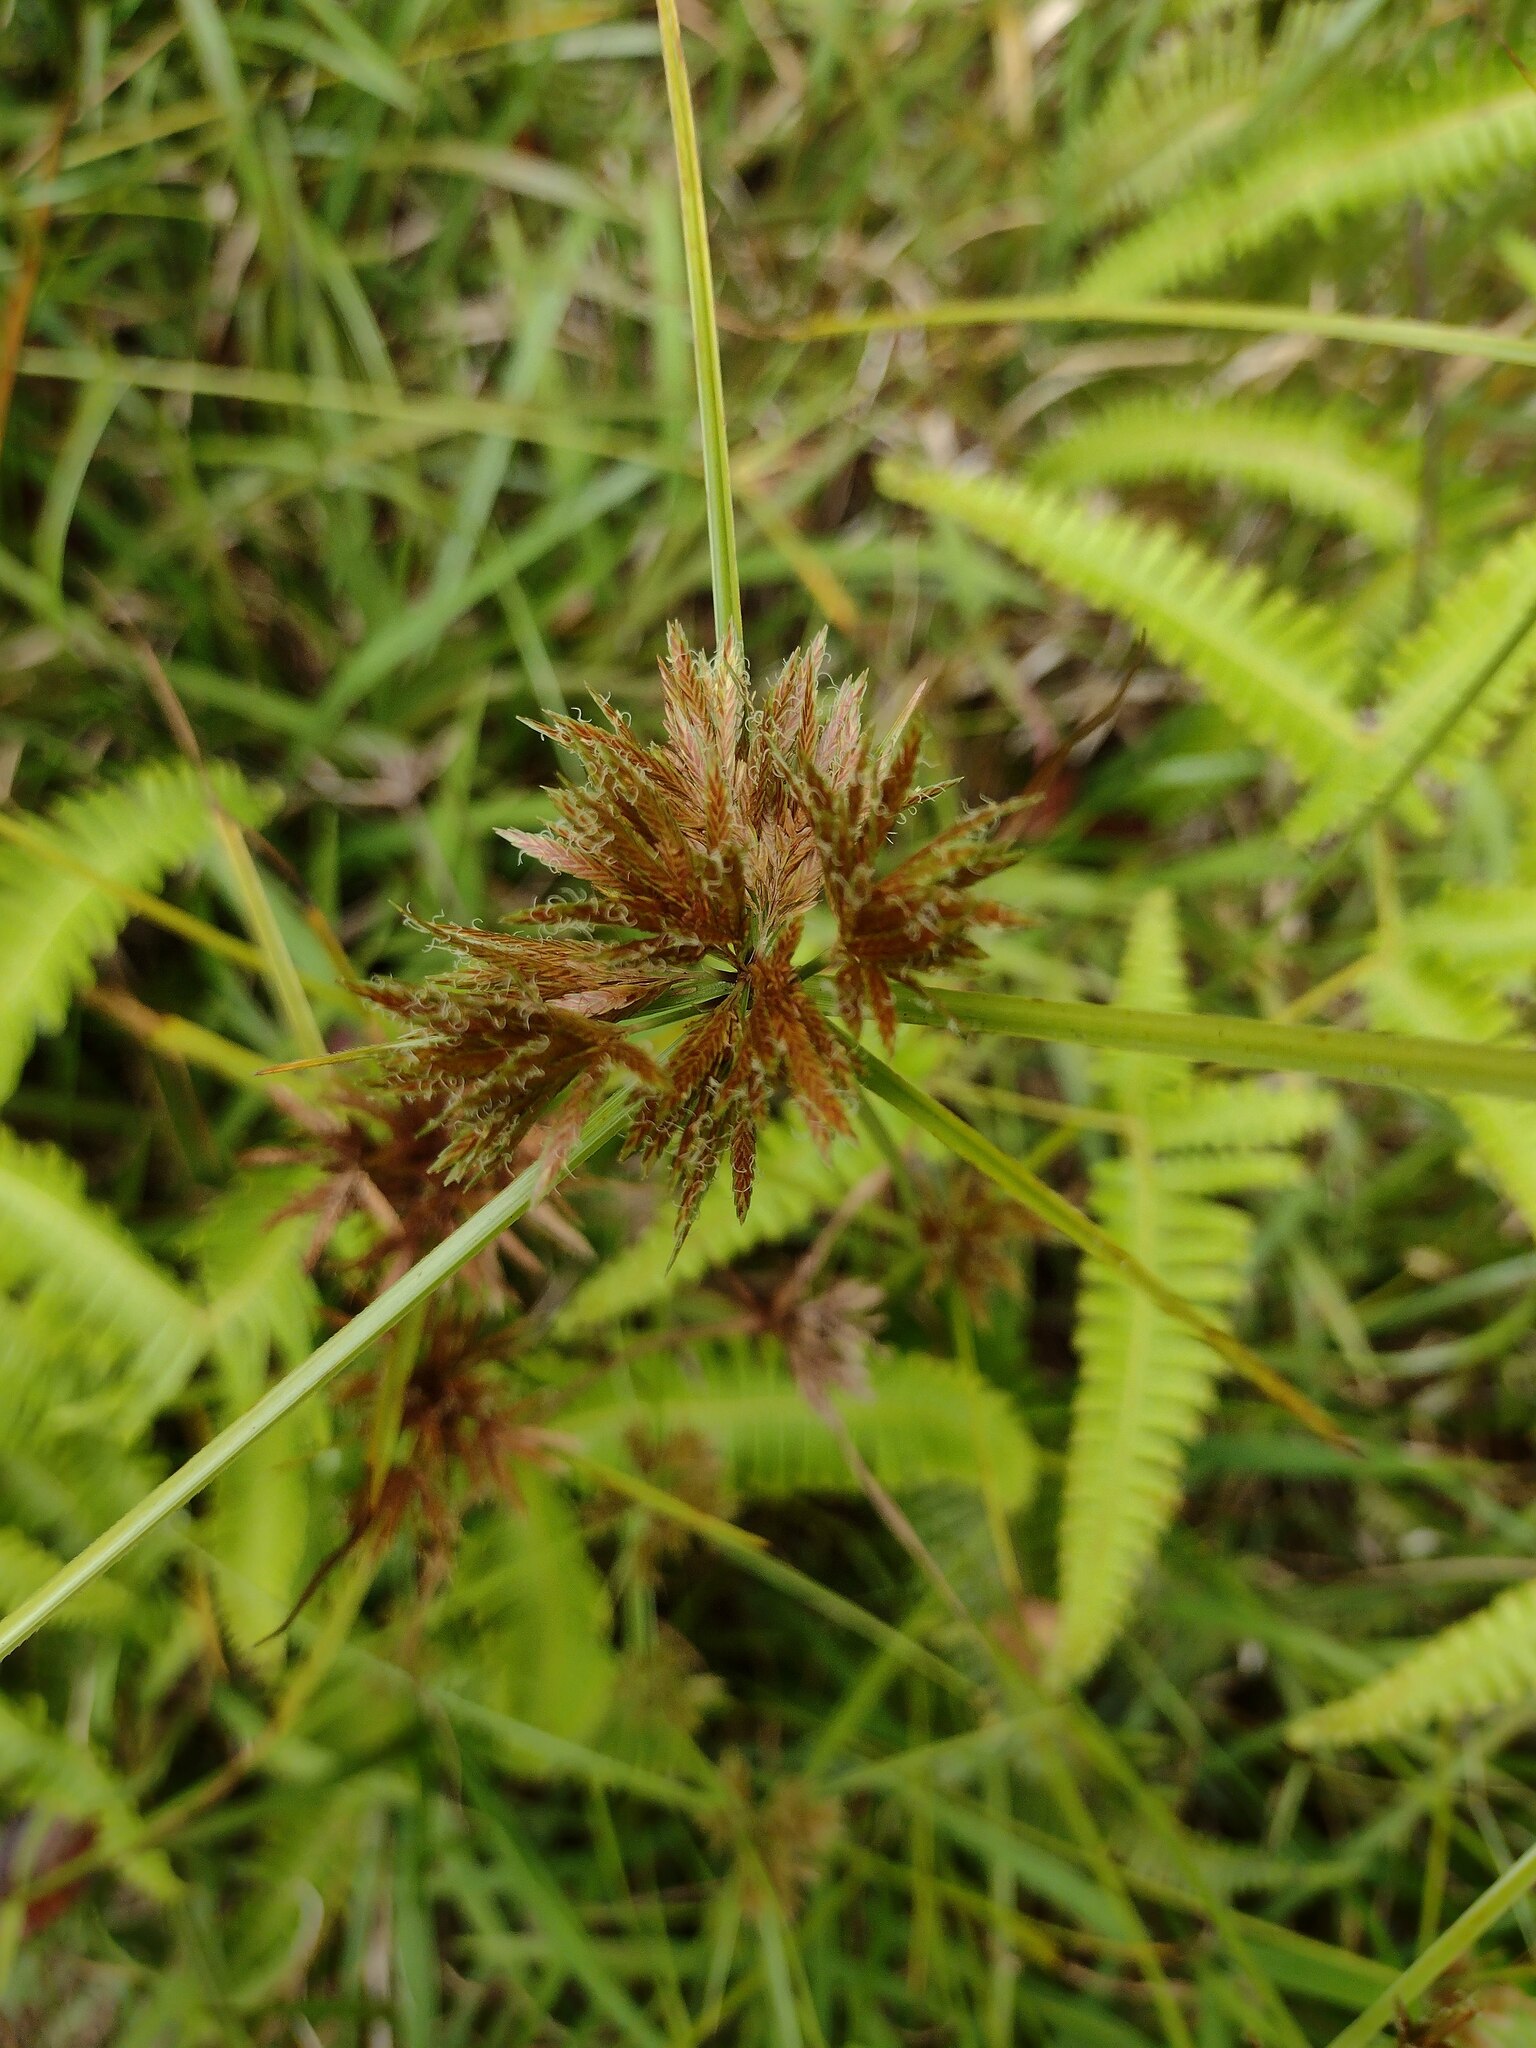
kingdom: Plantae
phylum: Tracheophyta
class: Liliopsida
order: Poales
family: Cyperaceae
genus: Cyperus
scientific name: Cyperus polystachyos
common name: Bunchy flat sedge
